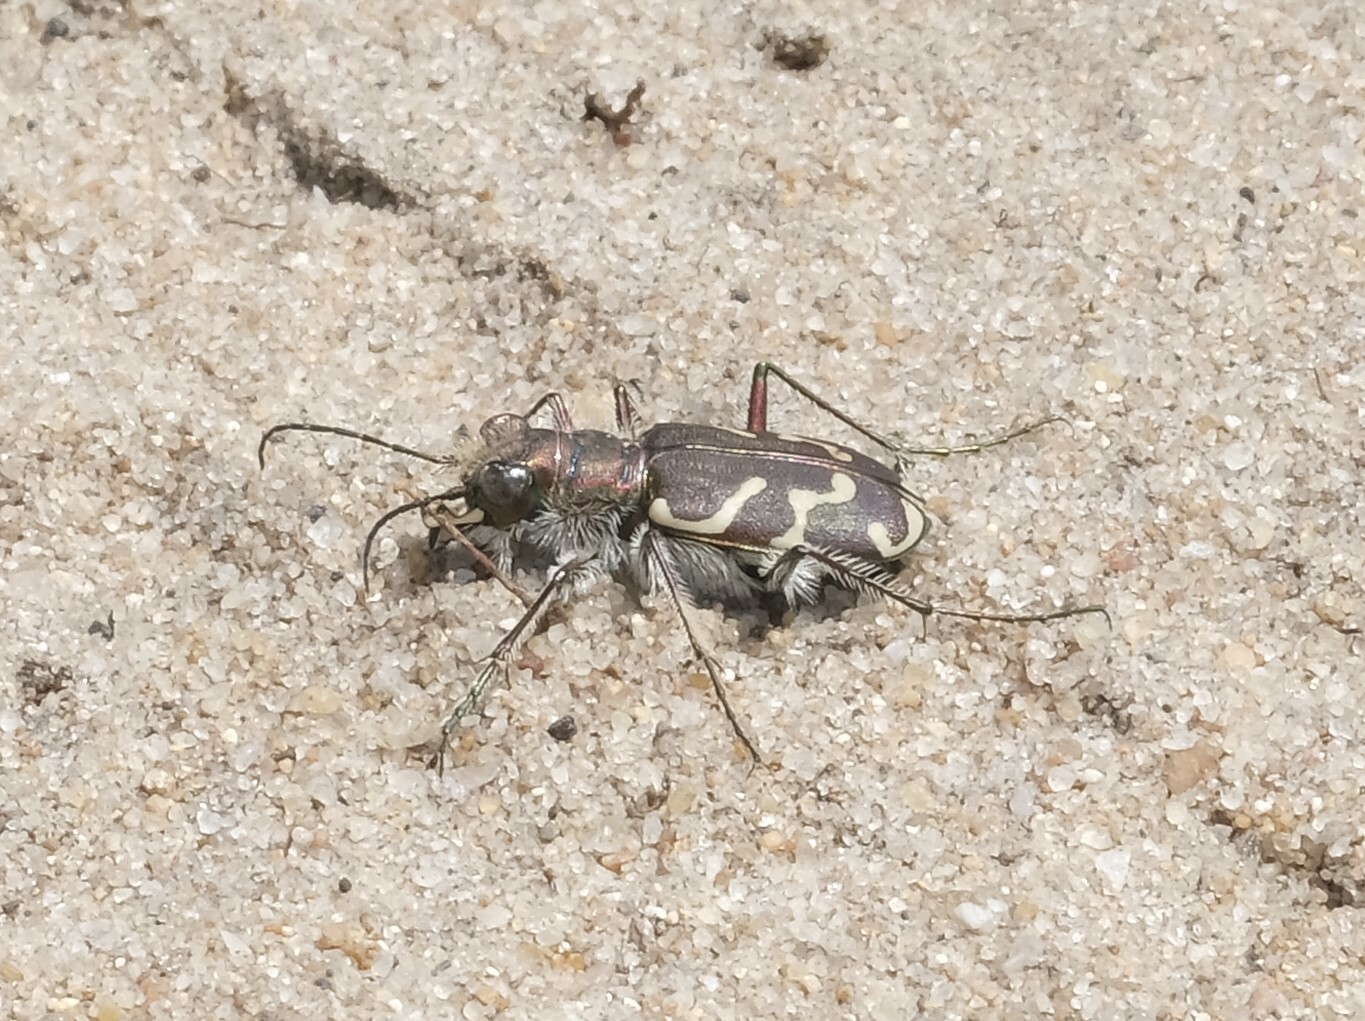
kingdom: Animalia
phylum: Arthropoda
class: Insecta
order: Coleoptera
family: Carabidae
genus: Cicindela
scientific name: Cicindela tranquebarica
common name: Oblique-lined tiger beetle
